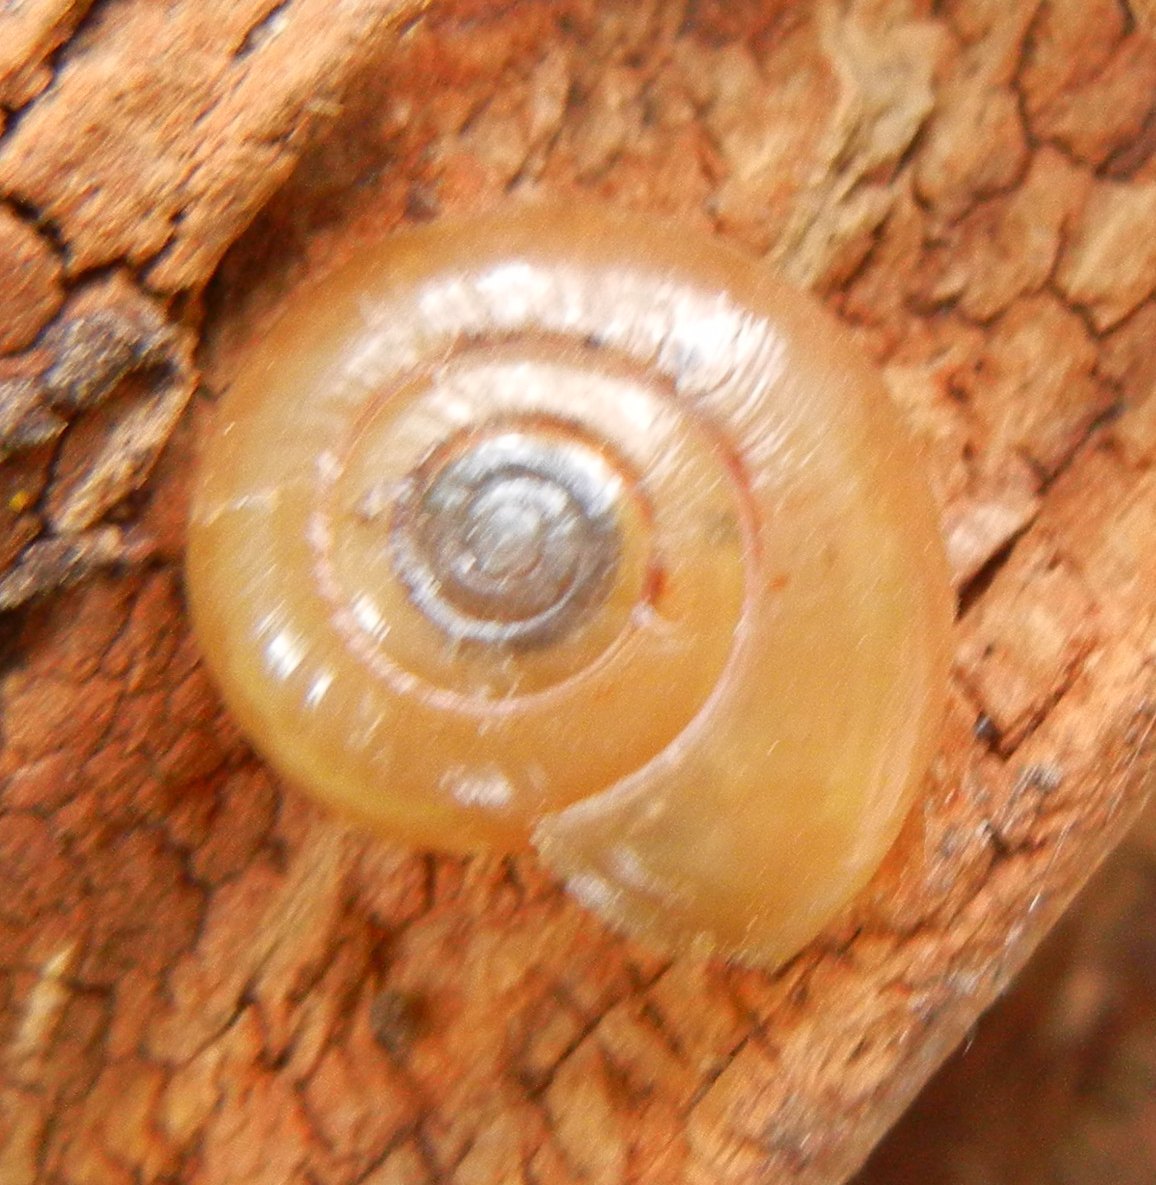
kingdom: Animalia
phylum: Mollusca
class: Gastropoda
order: Stylommatophora
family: Oxychilidae
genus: Oxychilus
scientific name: Oxychilus draparnaudi
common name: Draparnaud's glass snail
